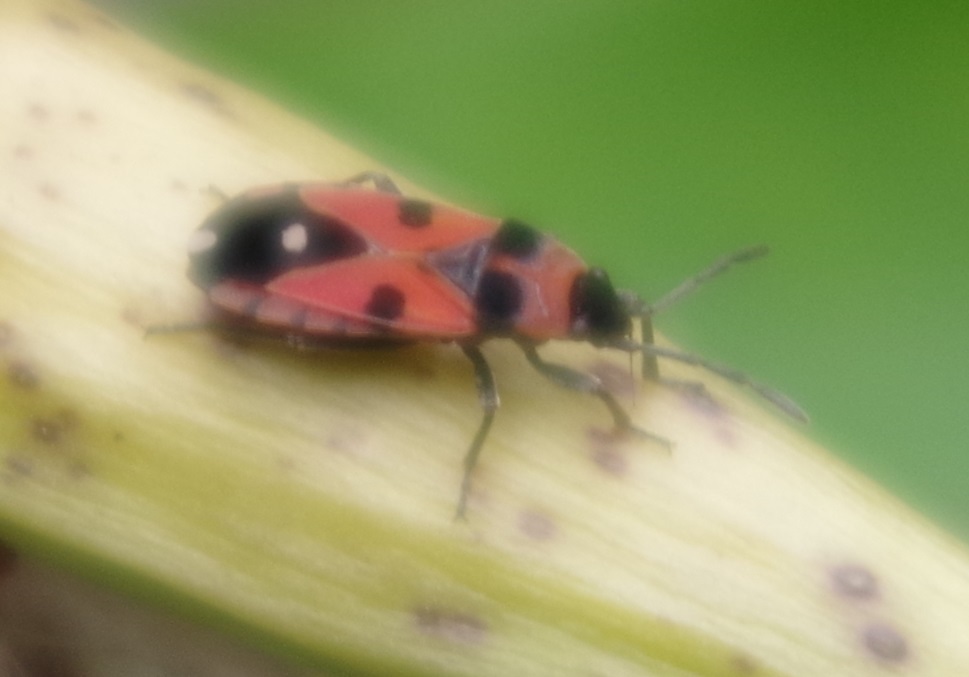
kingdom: Animalia
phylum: Arthropoda
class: Insecta
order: Hemiptera
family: Lygaeidae
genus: Horvathiolus
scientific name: Horvathiolus superbus
